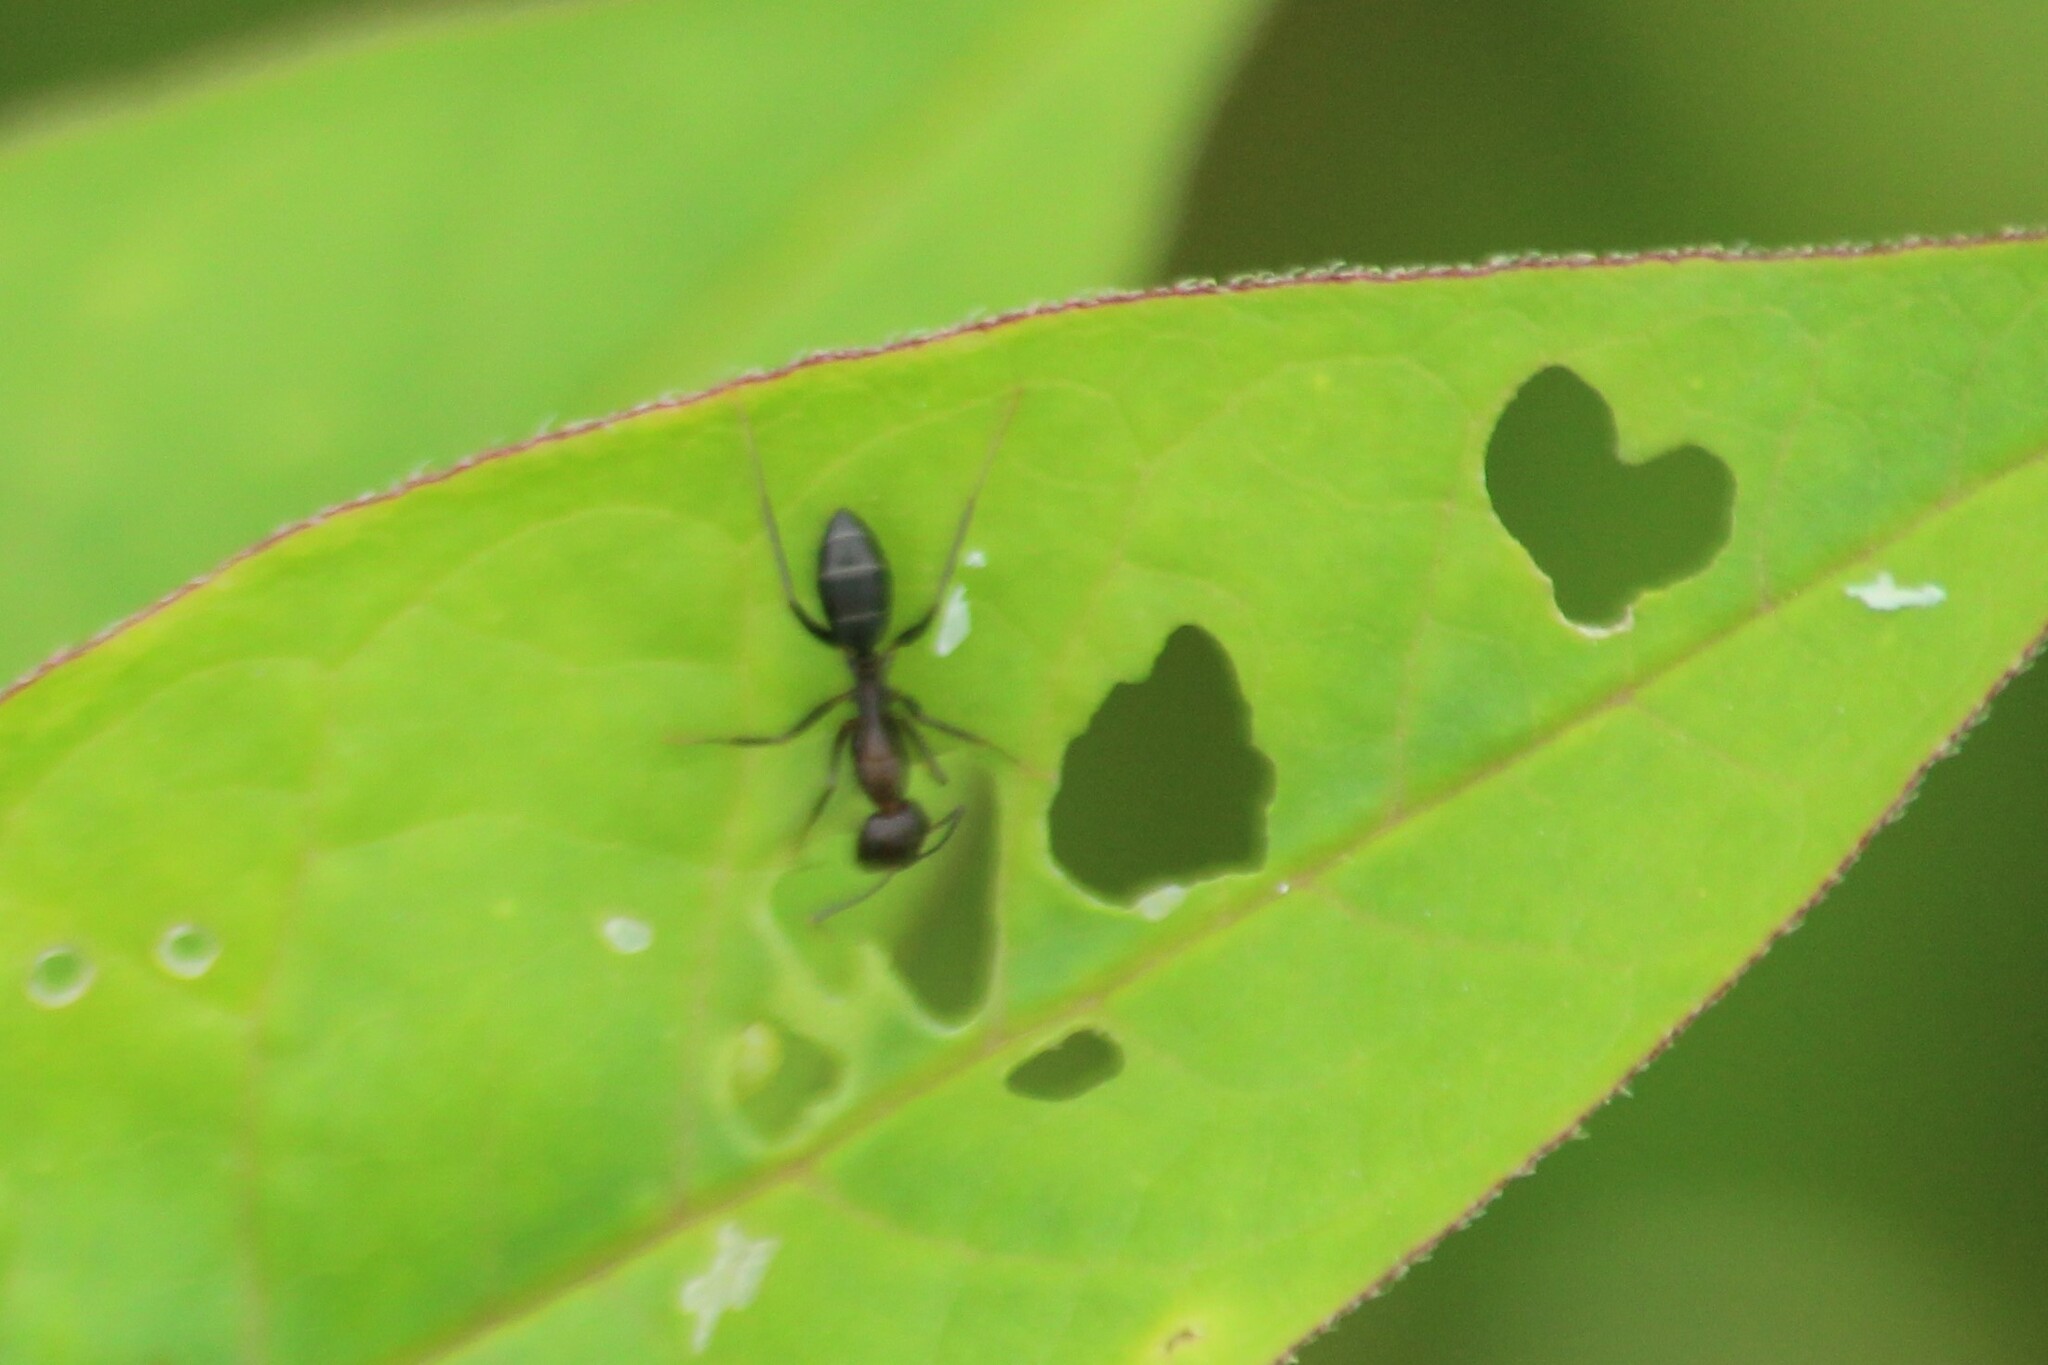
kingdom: Animalia
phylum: Arthropoda
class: Insecta
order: Hymenoptera
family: Formicidae
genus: Camponotus
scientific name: Camponotus compressus
